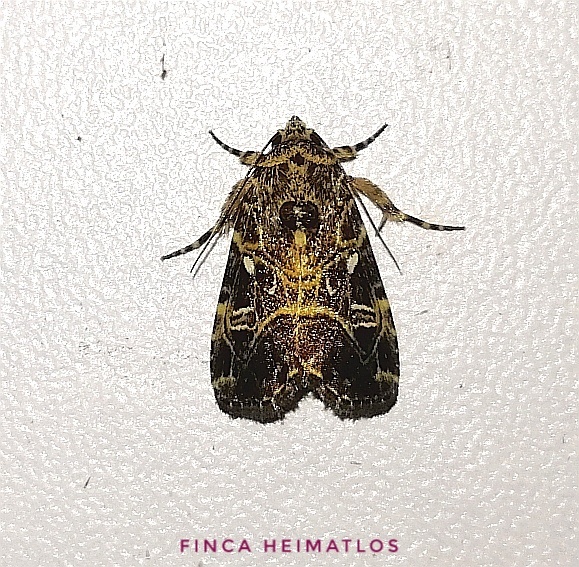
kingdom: Animalia
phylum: Arthropoda
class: Insecta
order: Lepidoptera
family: Noctuidae
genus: Elaphria
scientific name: Elaphria phlegyas
